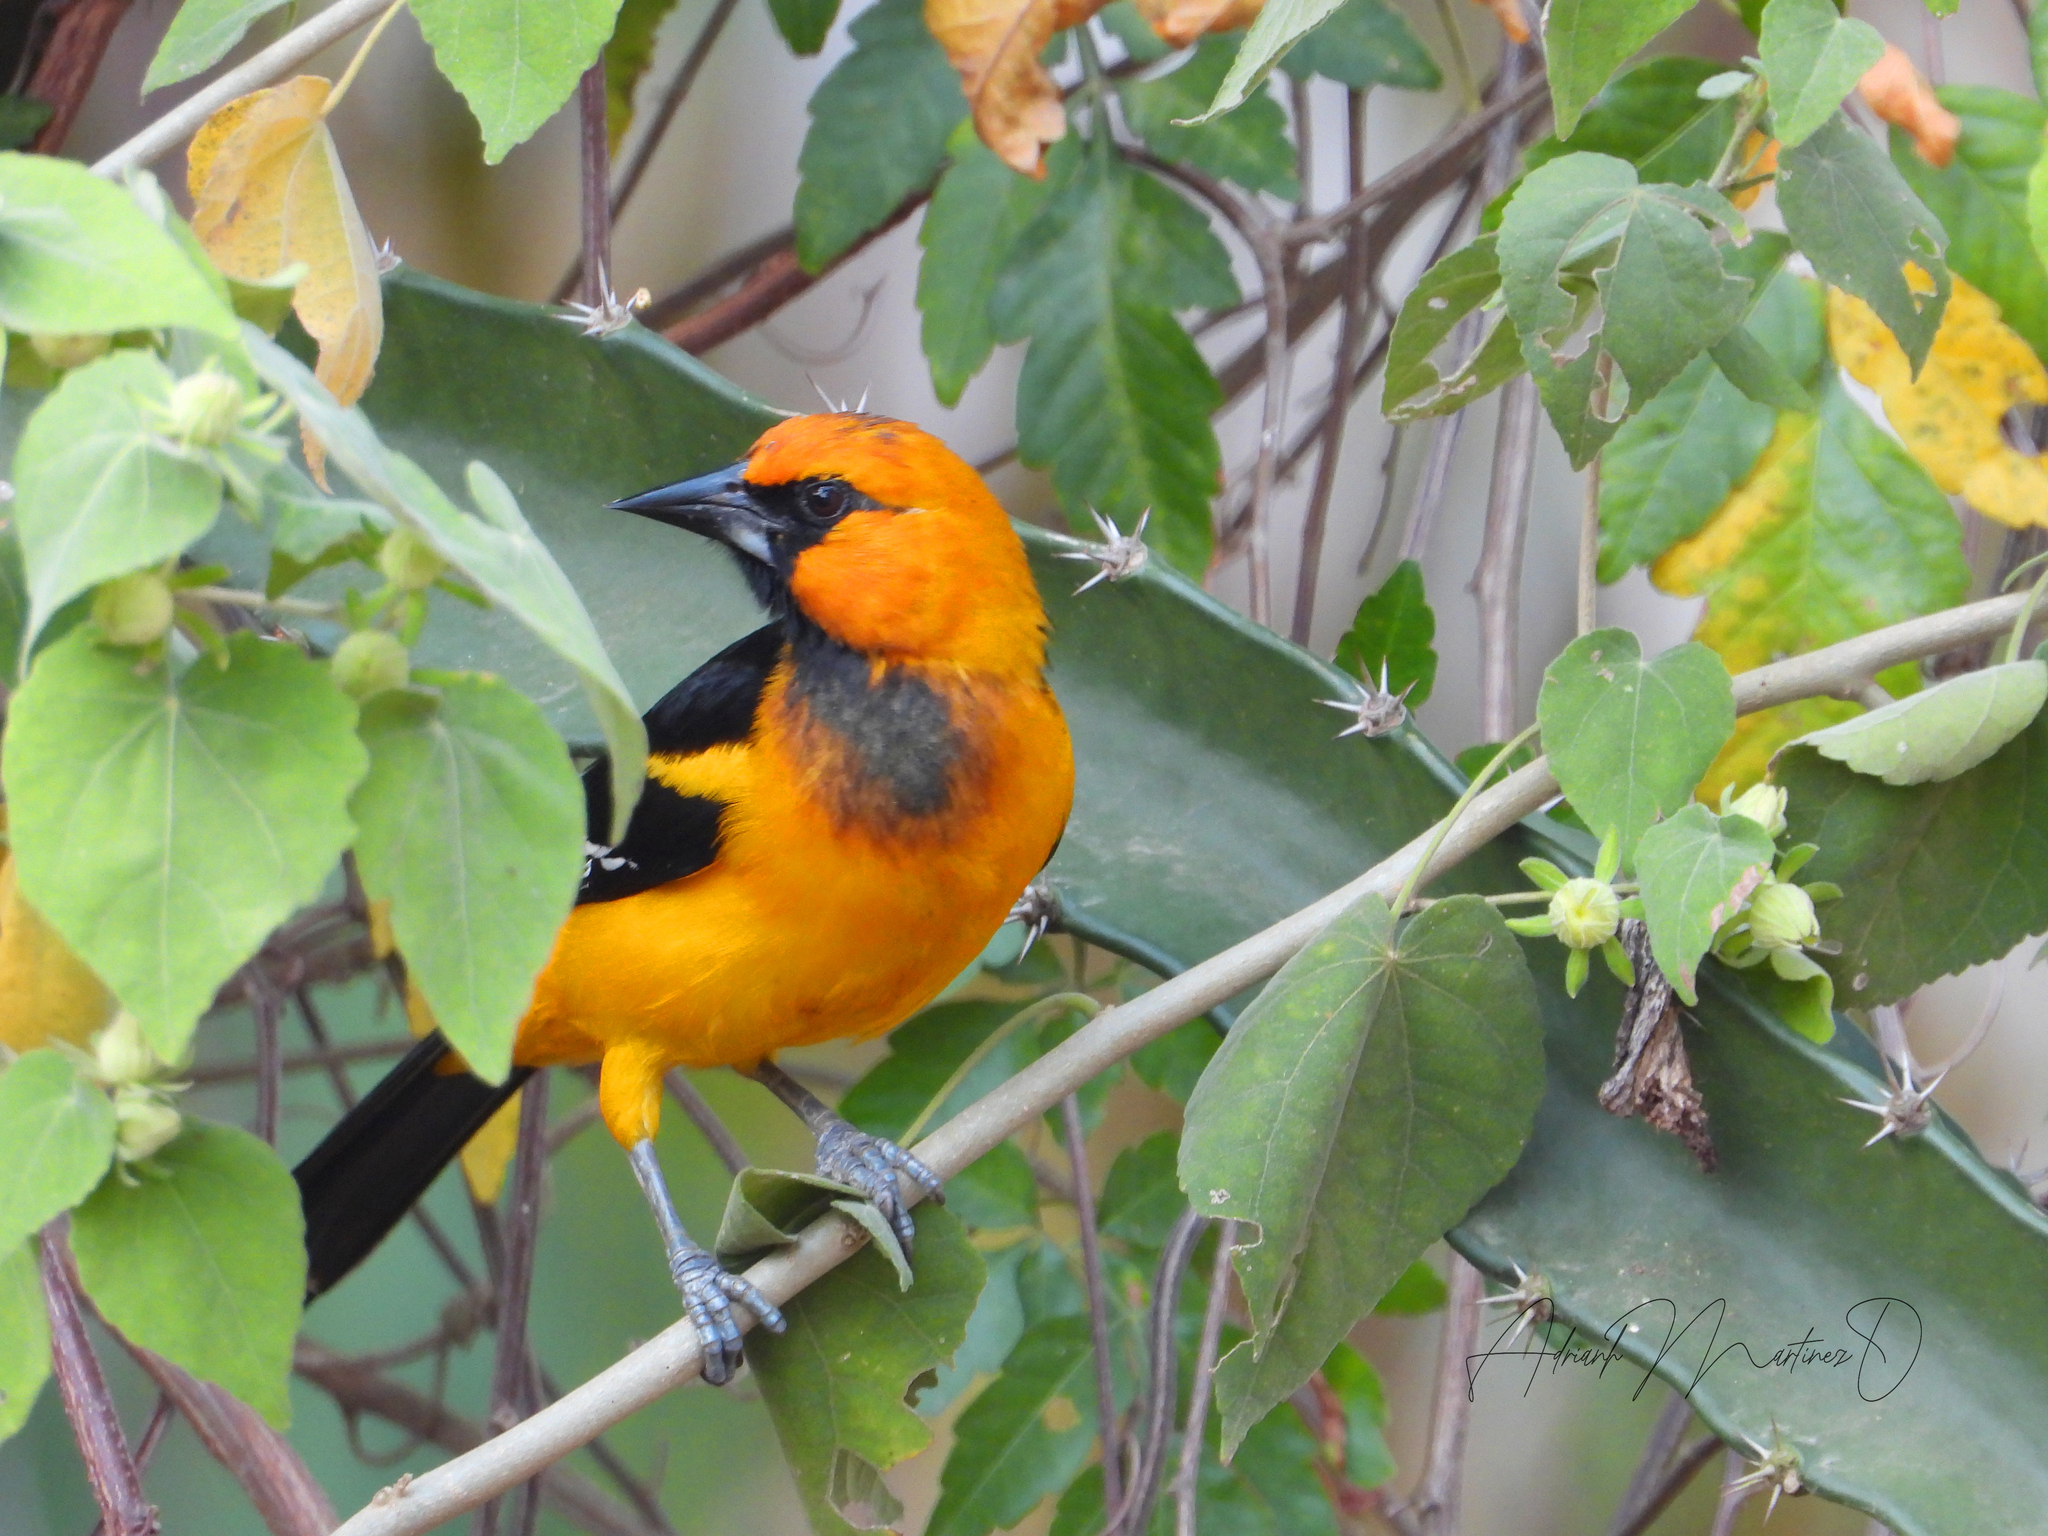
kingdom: Animalia
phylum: Chordata
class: Aves
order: Passeriformes
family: Icteridae
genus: Icterus
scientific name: Icterus gularis
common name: Altamira oriole
